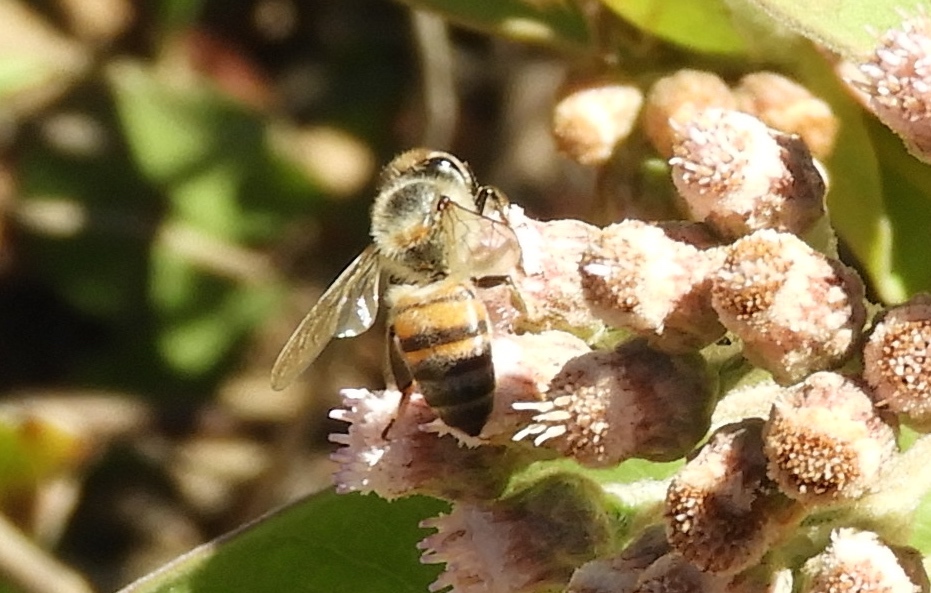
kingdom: Animalia
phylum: Arthropoda
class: Insecta
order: Hymenoptera
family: Apidae
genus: Apis
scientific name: Apis mellifera
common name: Honey bee
